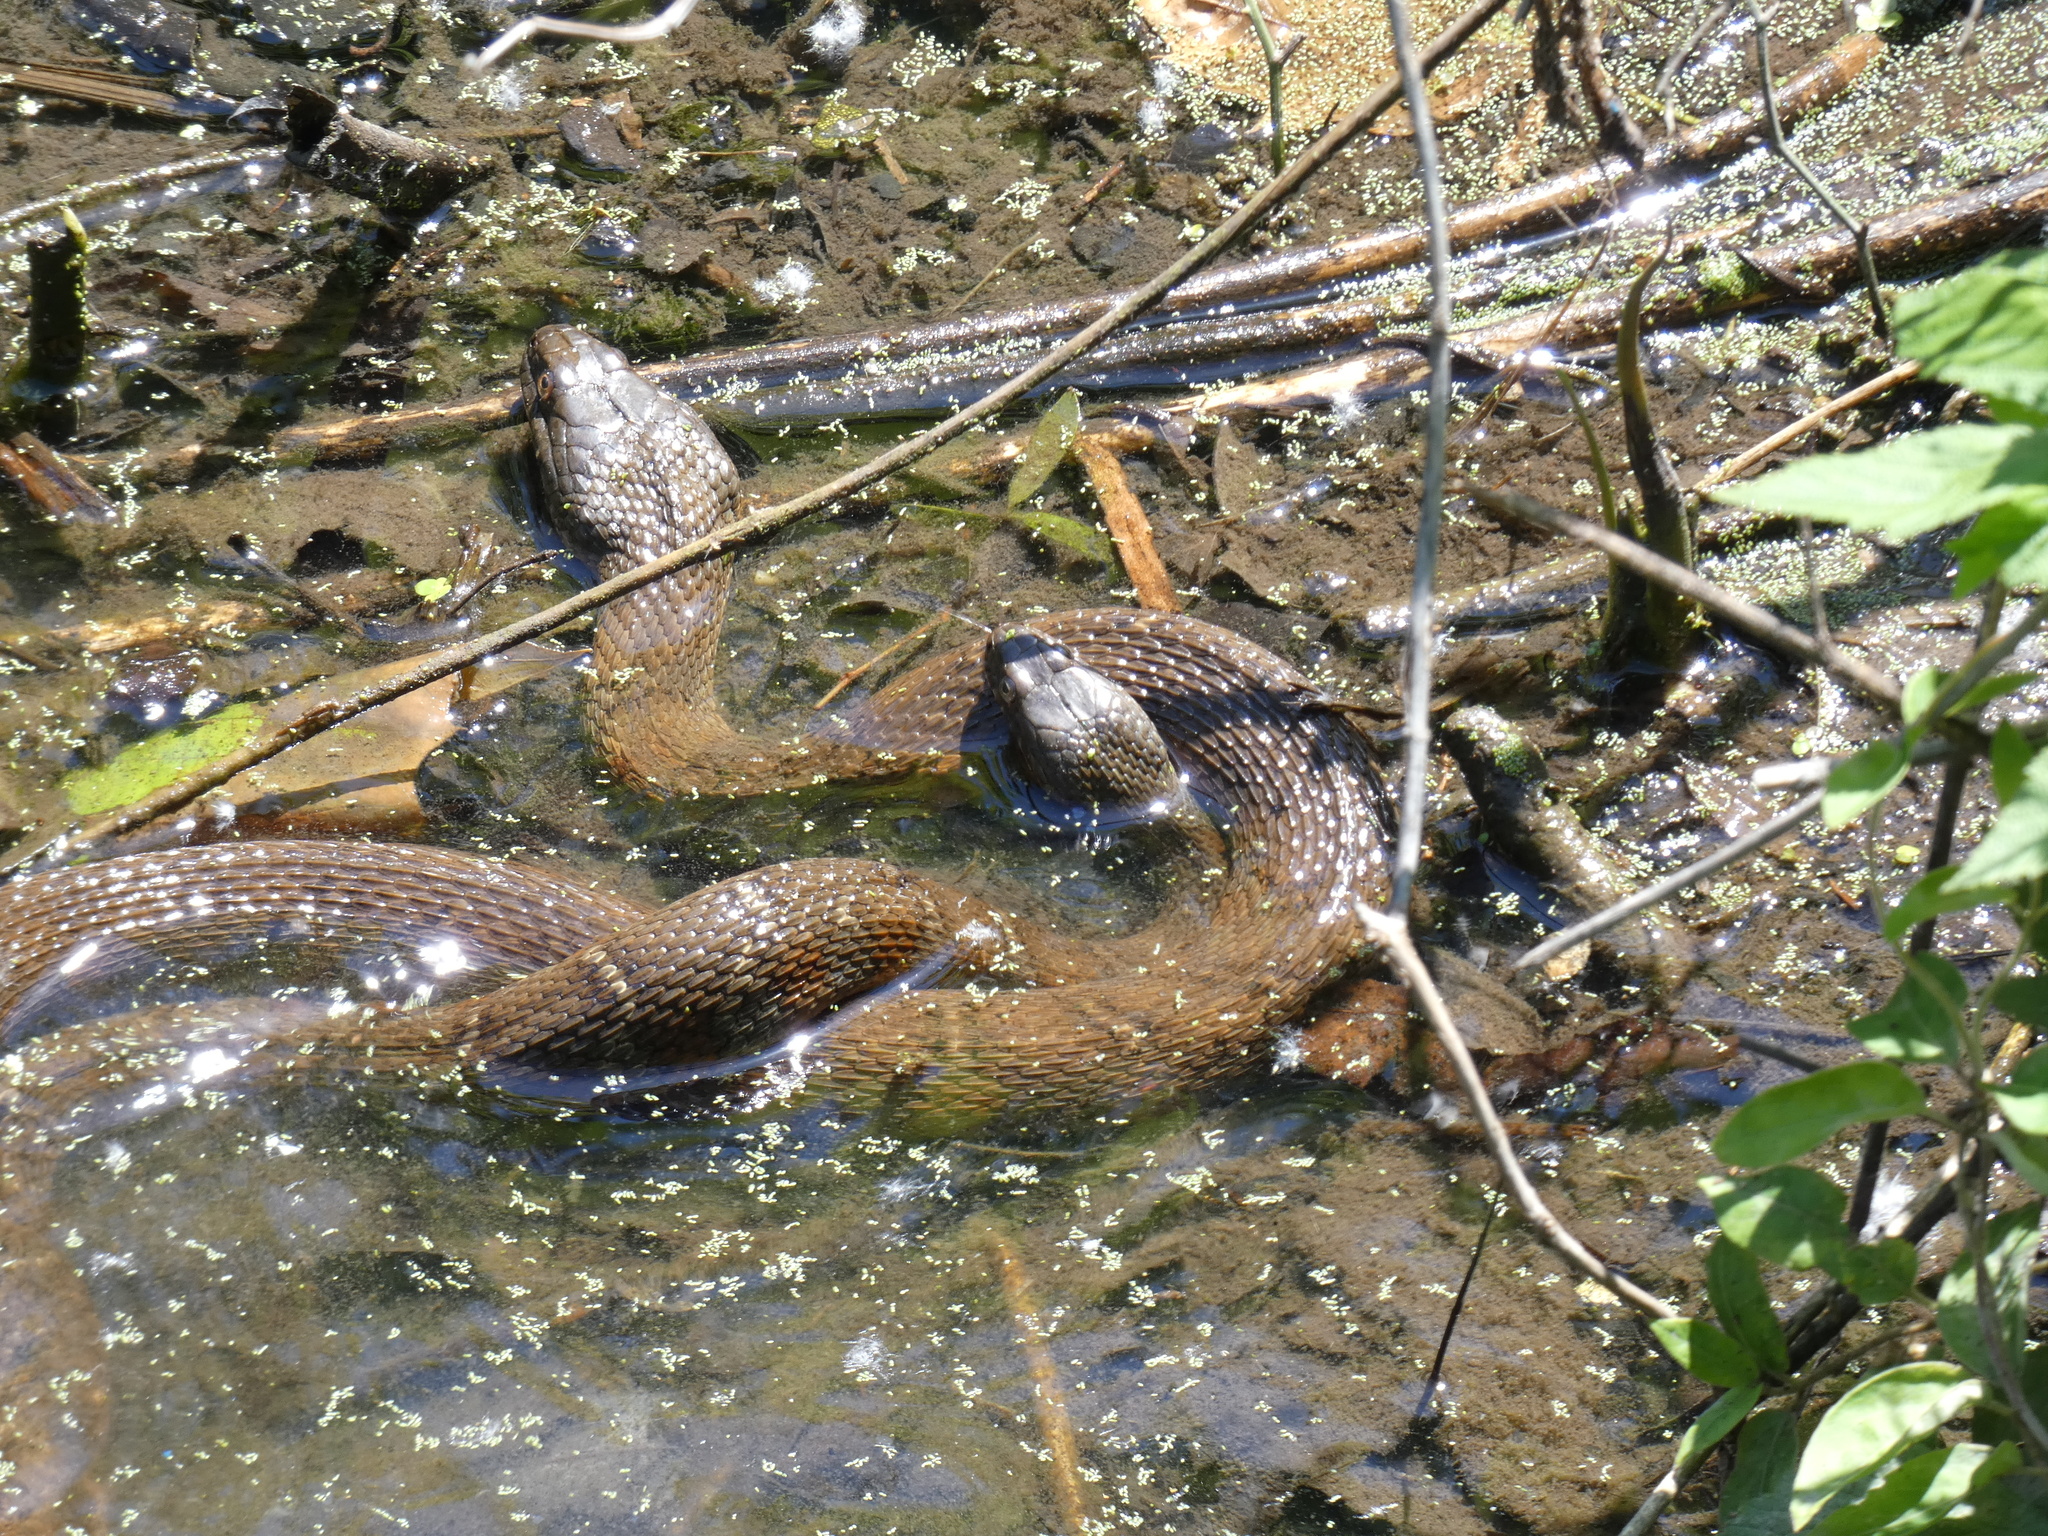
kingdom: Animalia
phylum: Chordata
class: Squamata
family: Colubridae
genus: Nerodia
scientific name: Nerodia sipedon
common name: Northern water snake
